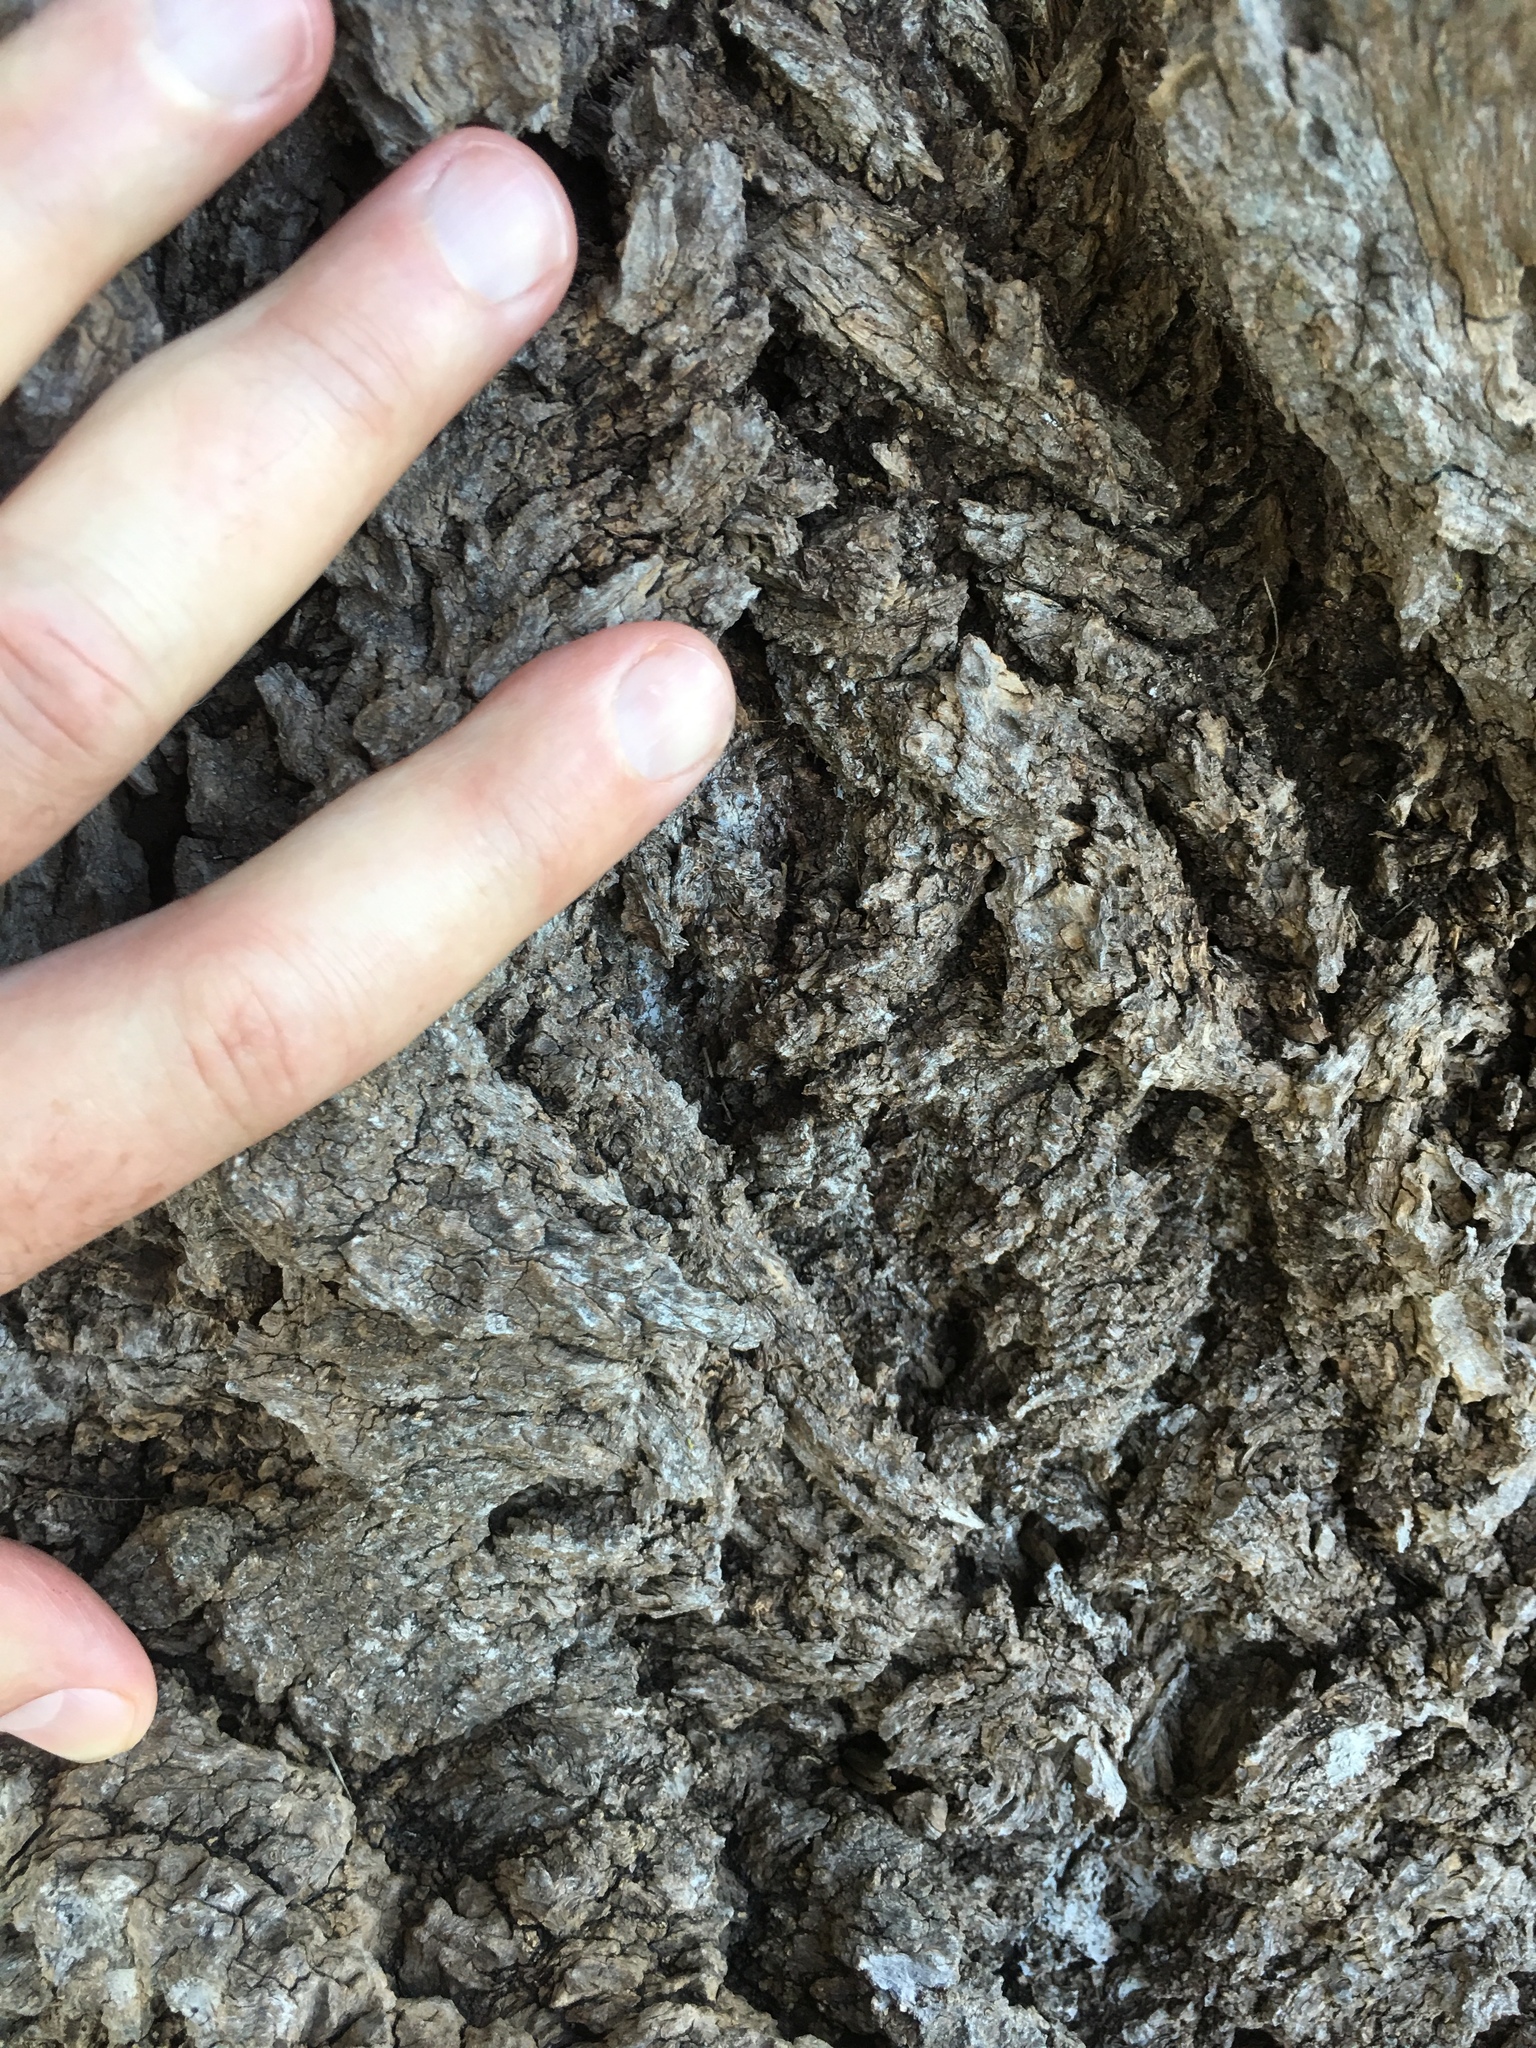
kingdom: Plantae
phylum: Tracheophyta
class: Magnoliopsida
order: Malpighiales
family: Salicaceae
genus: Populus
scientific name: Populus deltoides
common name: Eastern cottonwood
